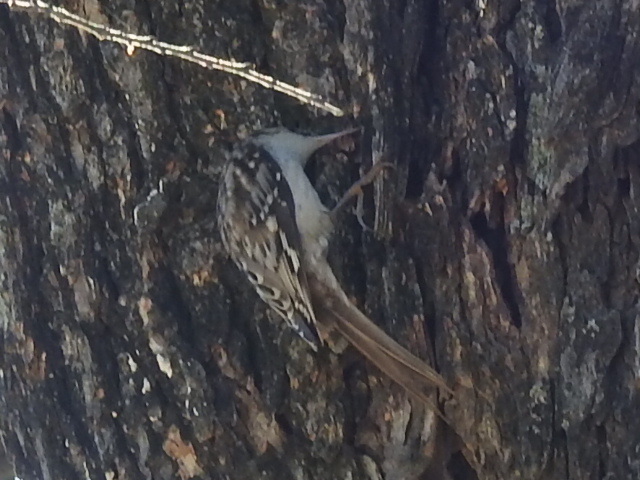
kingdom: Animalia
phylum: Chordata
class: Aves
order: Passeriformes
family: Certhiidae
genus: Certhia
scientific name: Certhia americana
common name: Brown creeper
